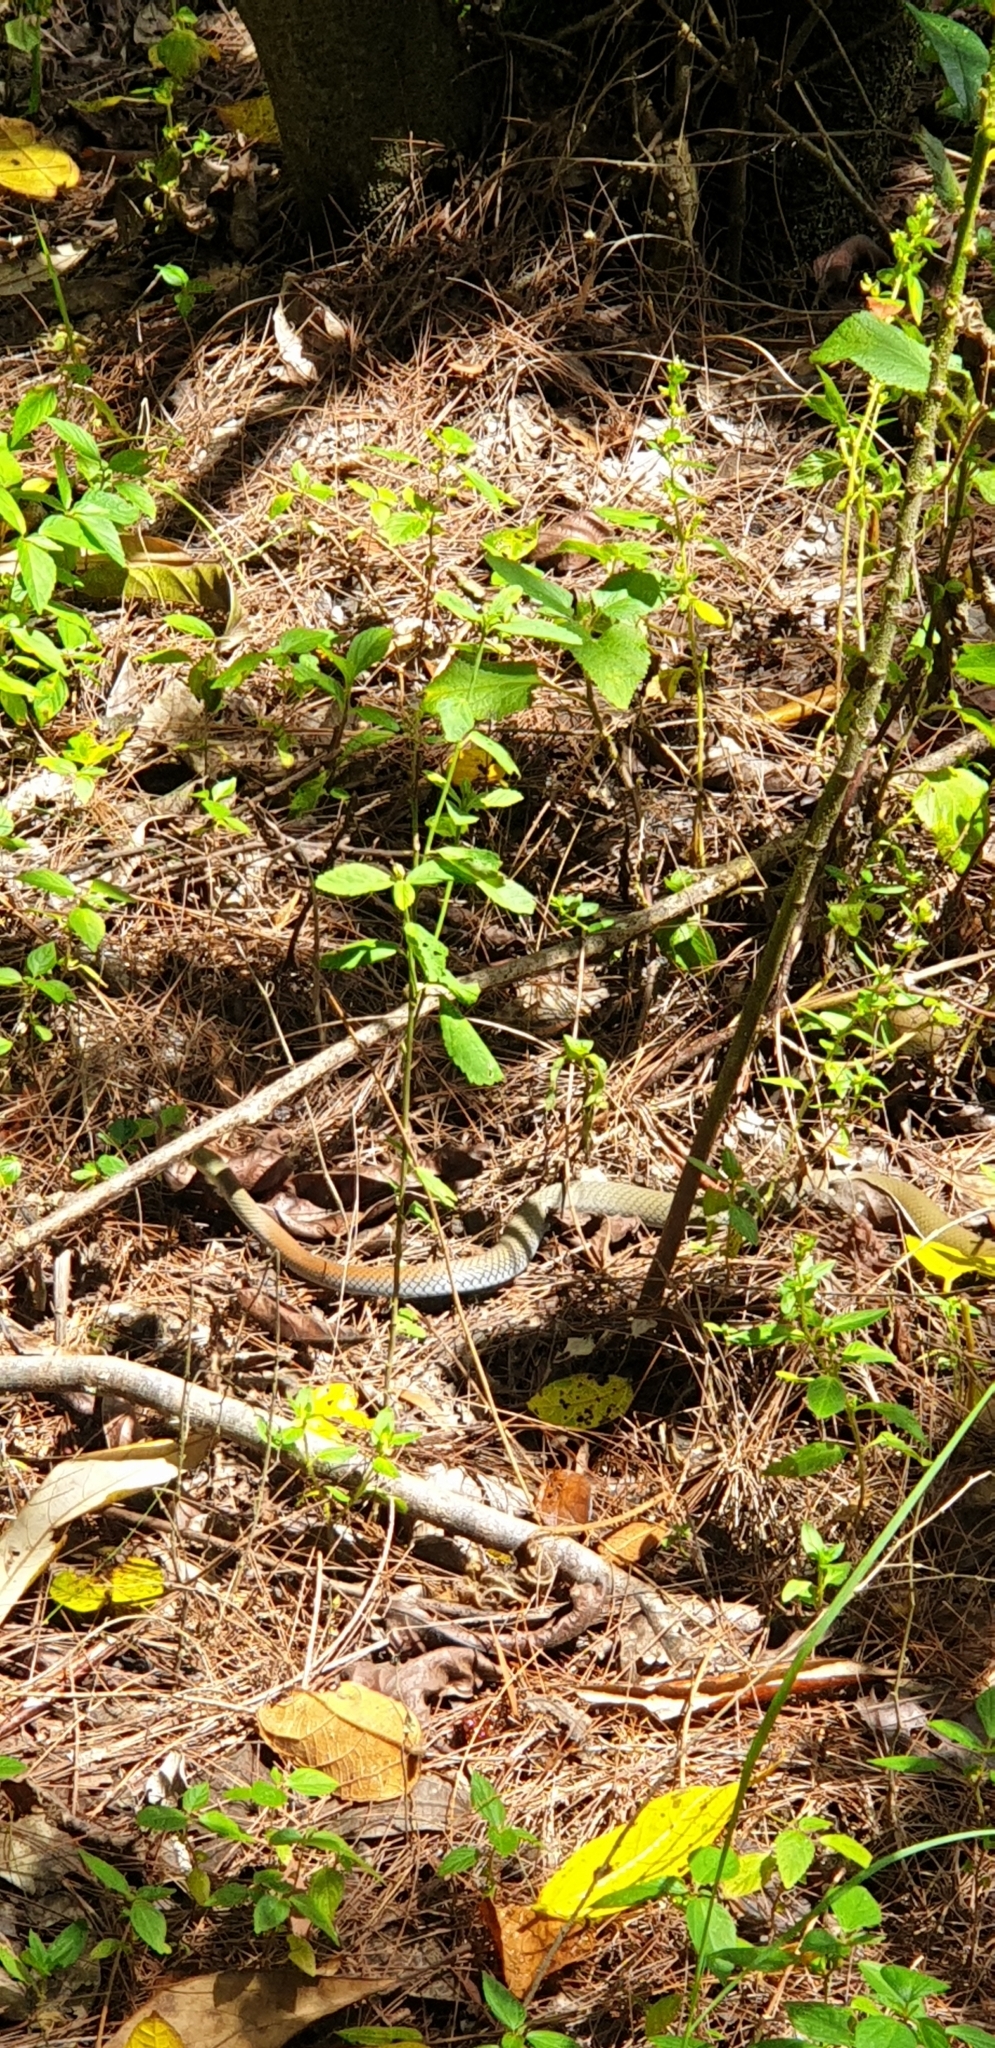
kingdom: Animalia
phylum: Chordata
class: Squamata
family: Elapidae
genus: Demansia
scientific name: Demansia psammophis
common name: Yellow-faced whip snake
